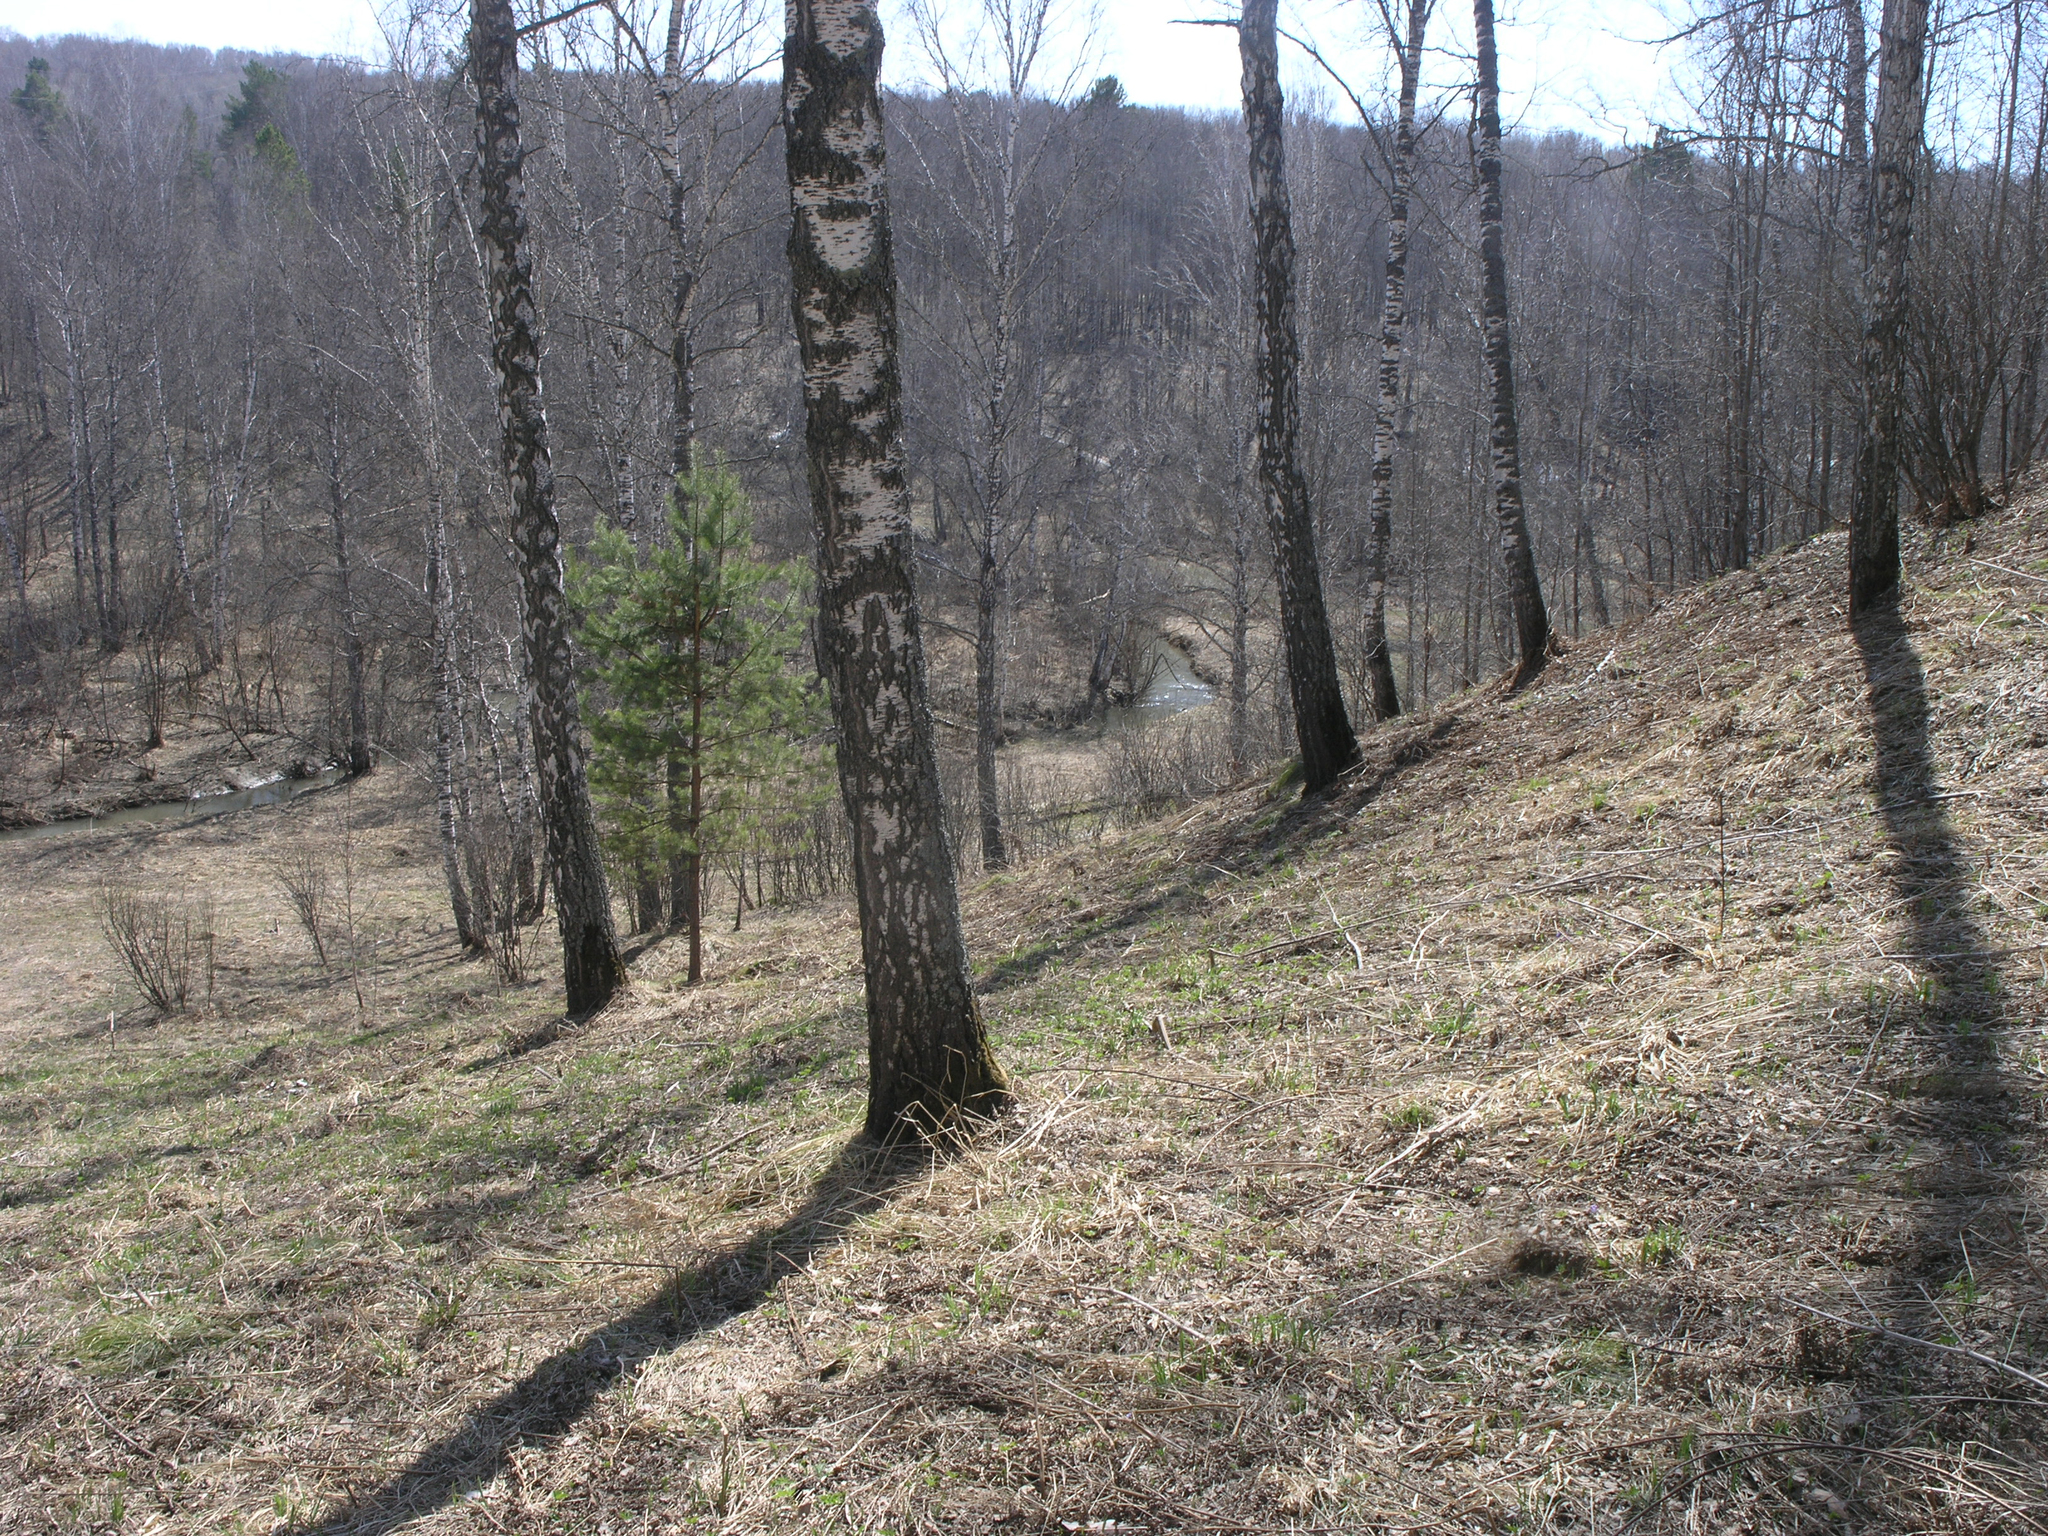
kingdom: Plantae
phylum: Tracheophyta
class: Pinopsida
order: Pinales
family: Pinaceae
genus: Pinus
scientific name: Pinus sylvestris
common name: Scots pine
